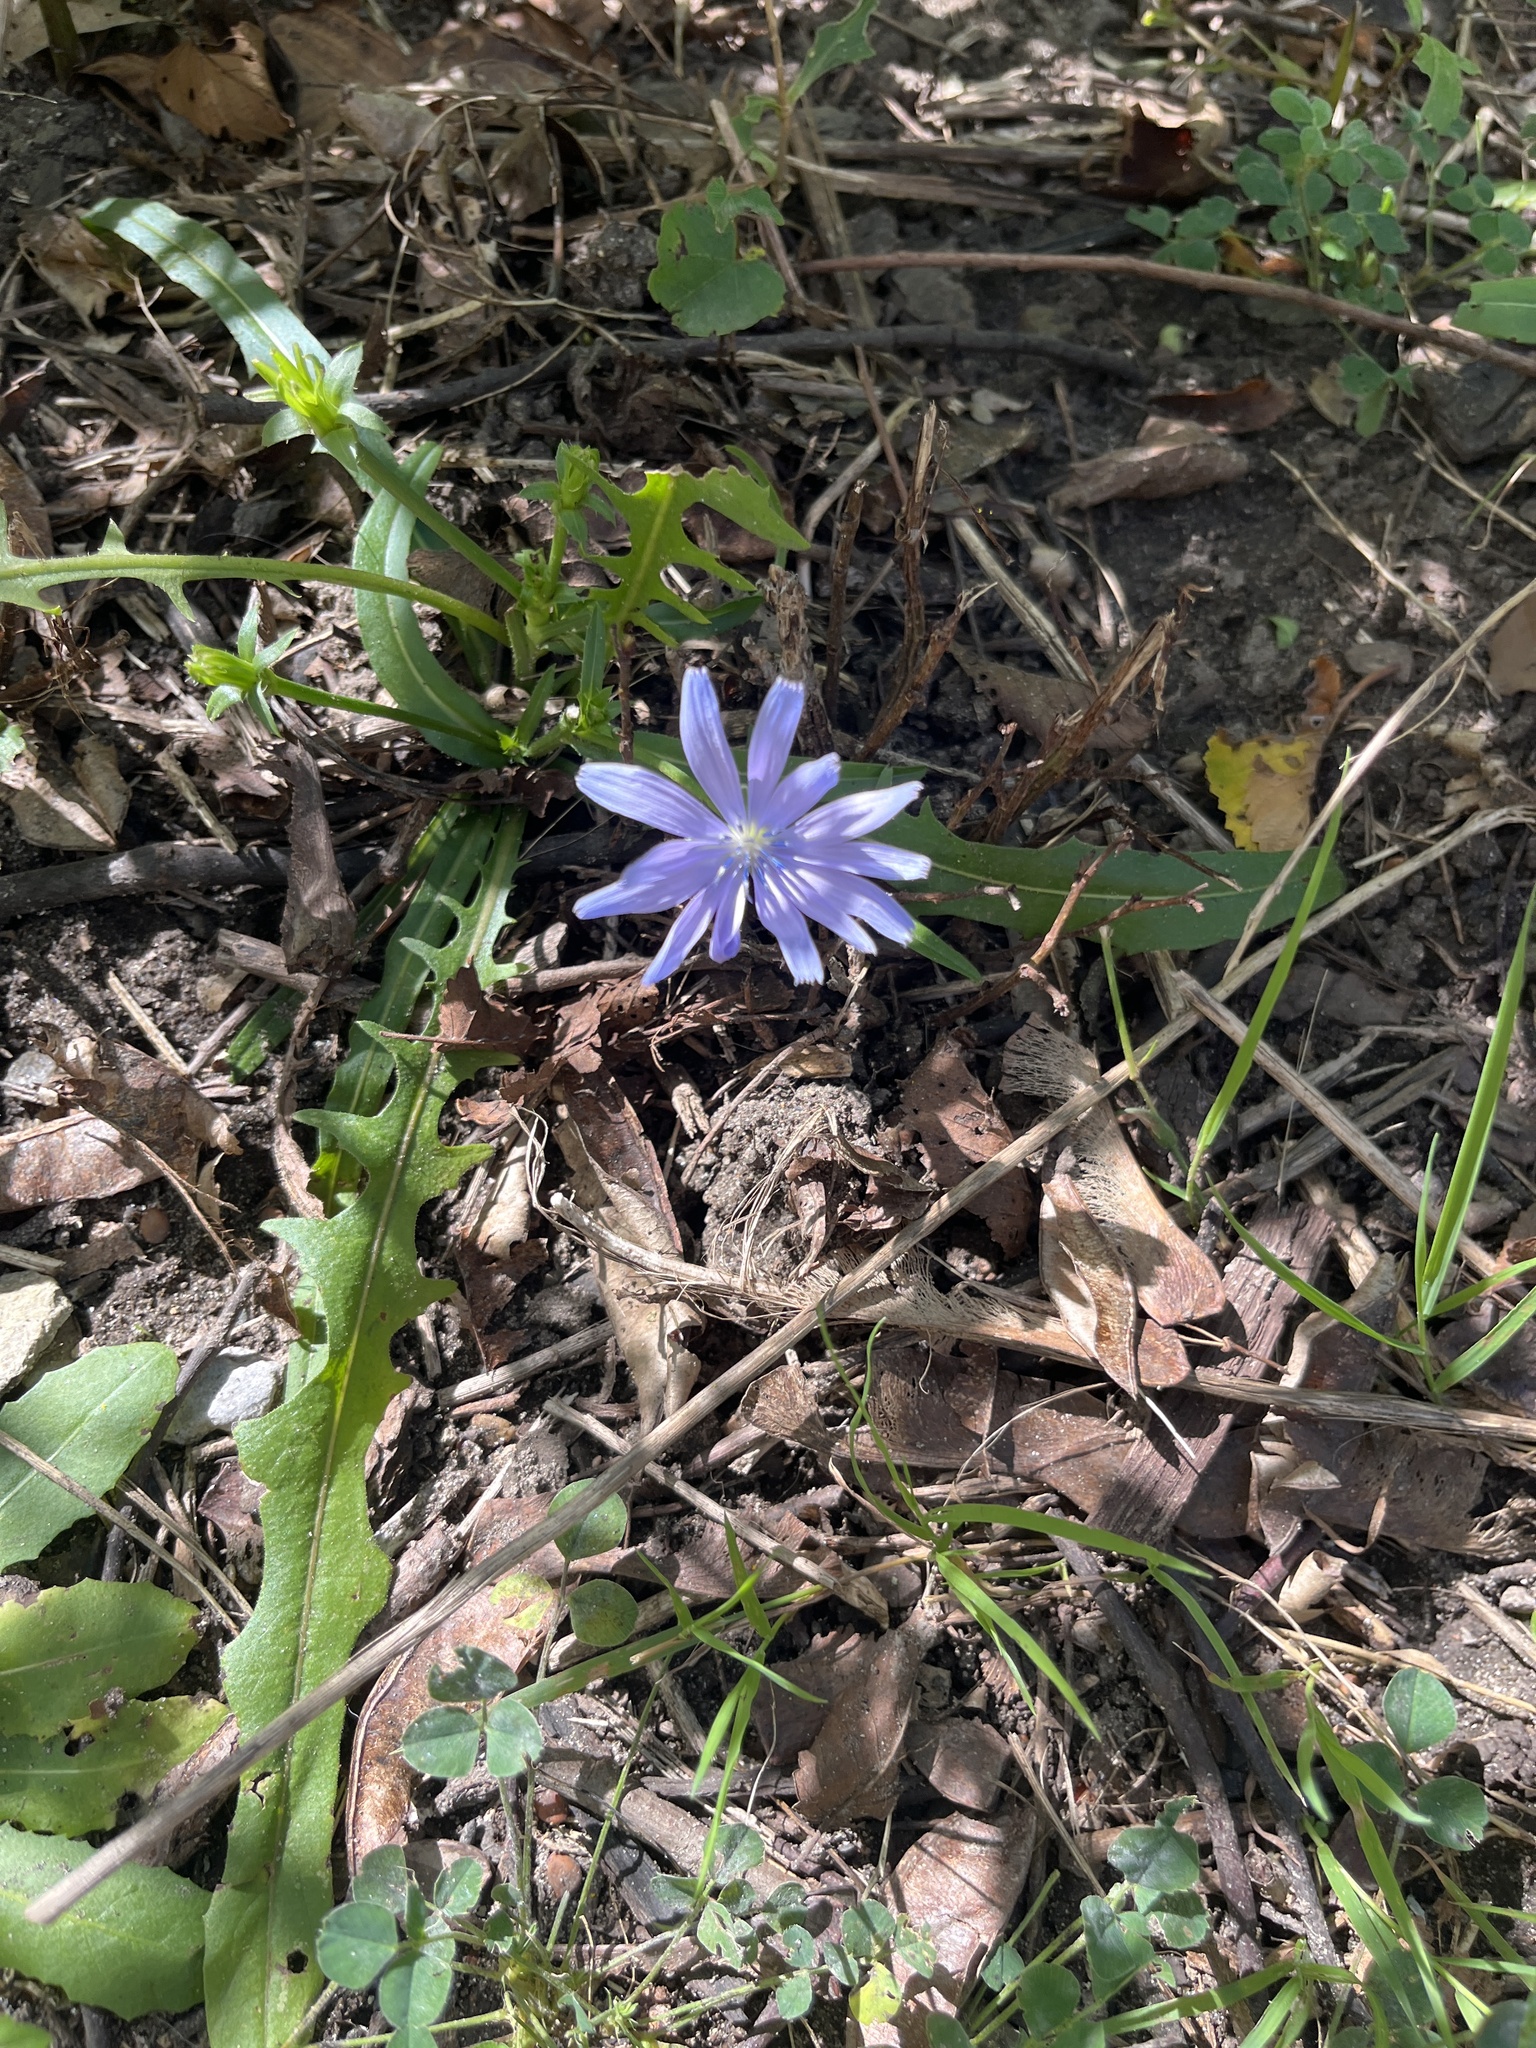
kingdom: Plantae
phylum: Tracheophyta
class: Magnoliopsida
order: Asterales
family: Asteraceae
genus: Cichorium
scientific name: Cichorium intybus
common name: Chicory
